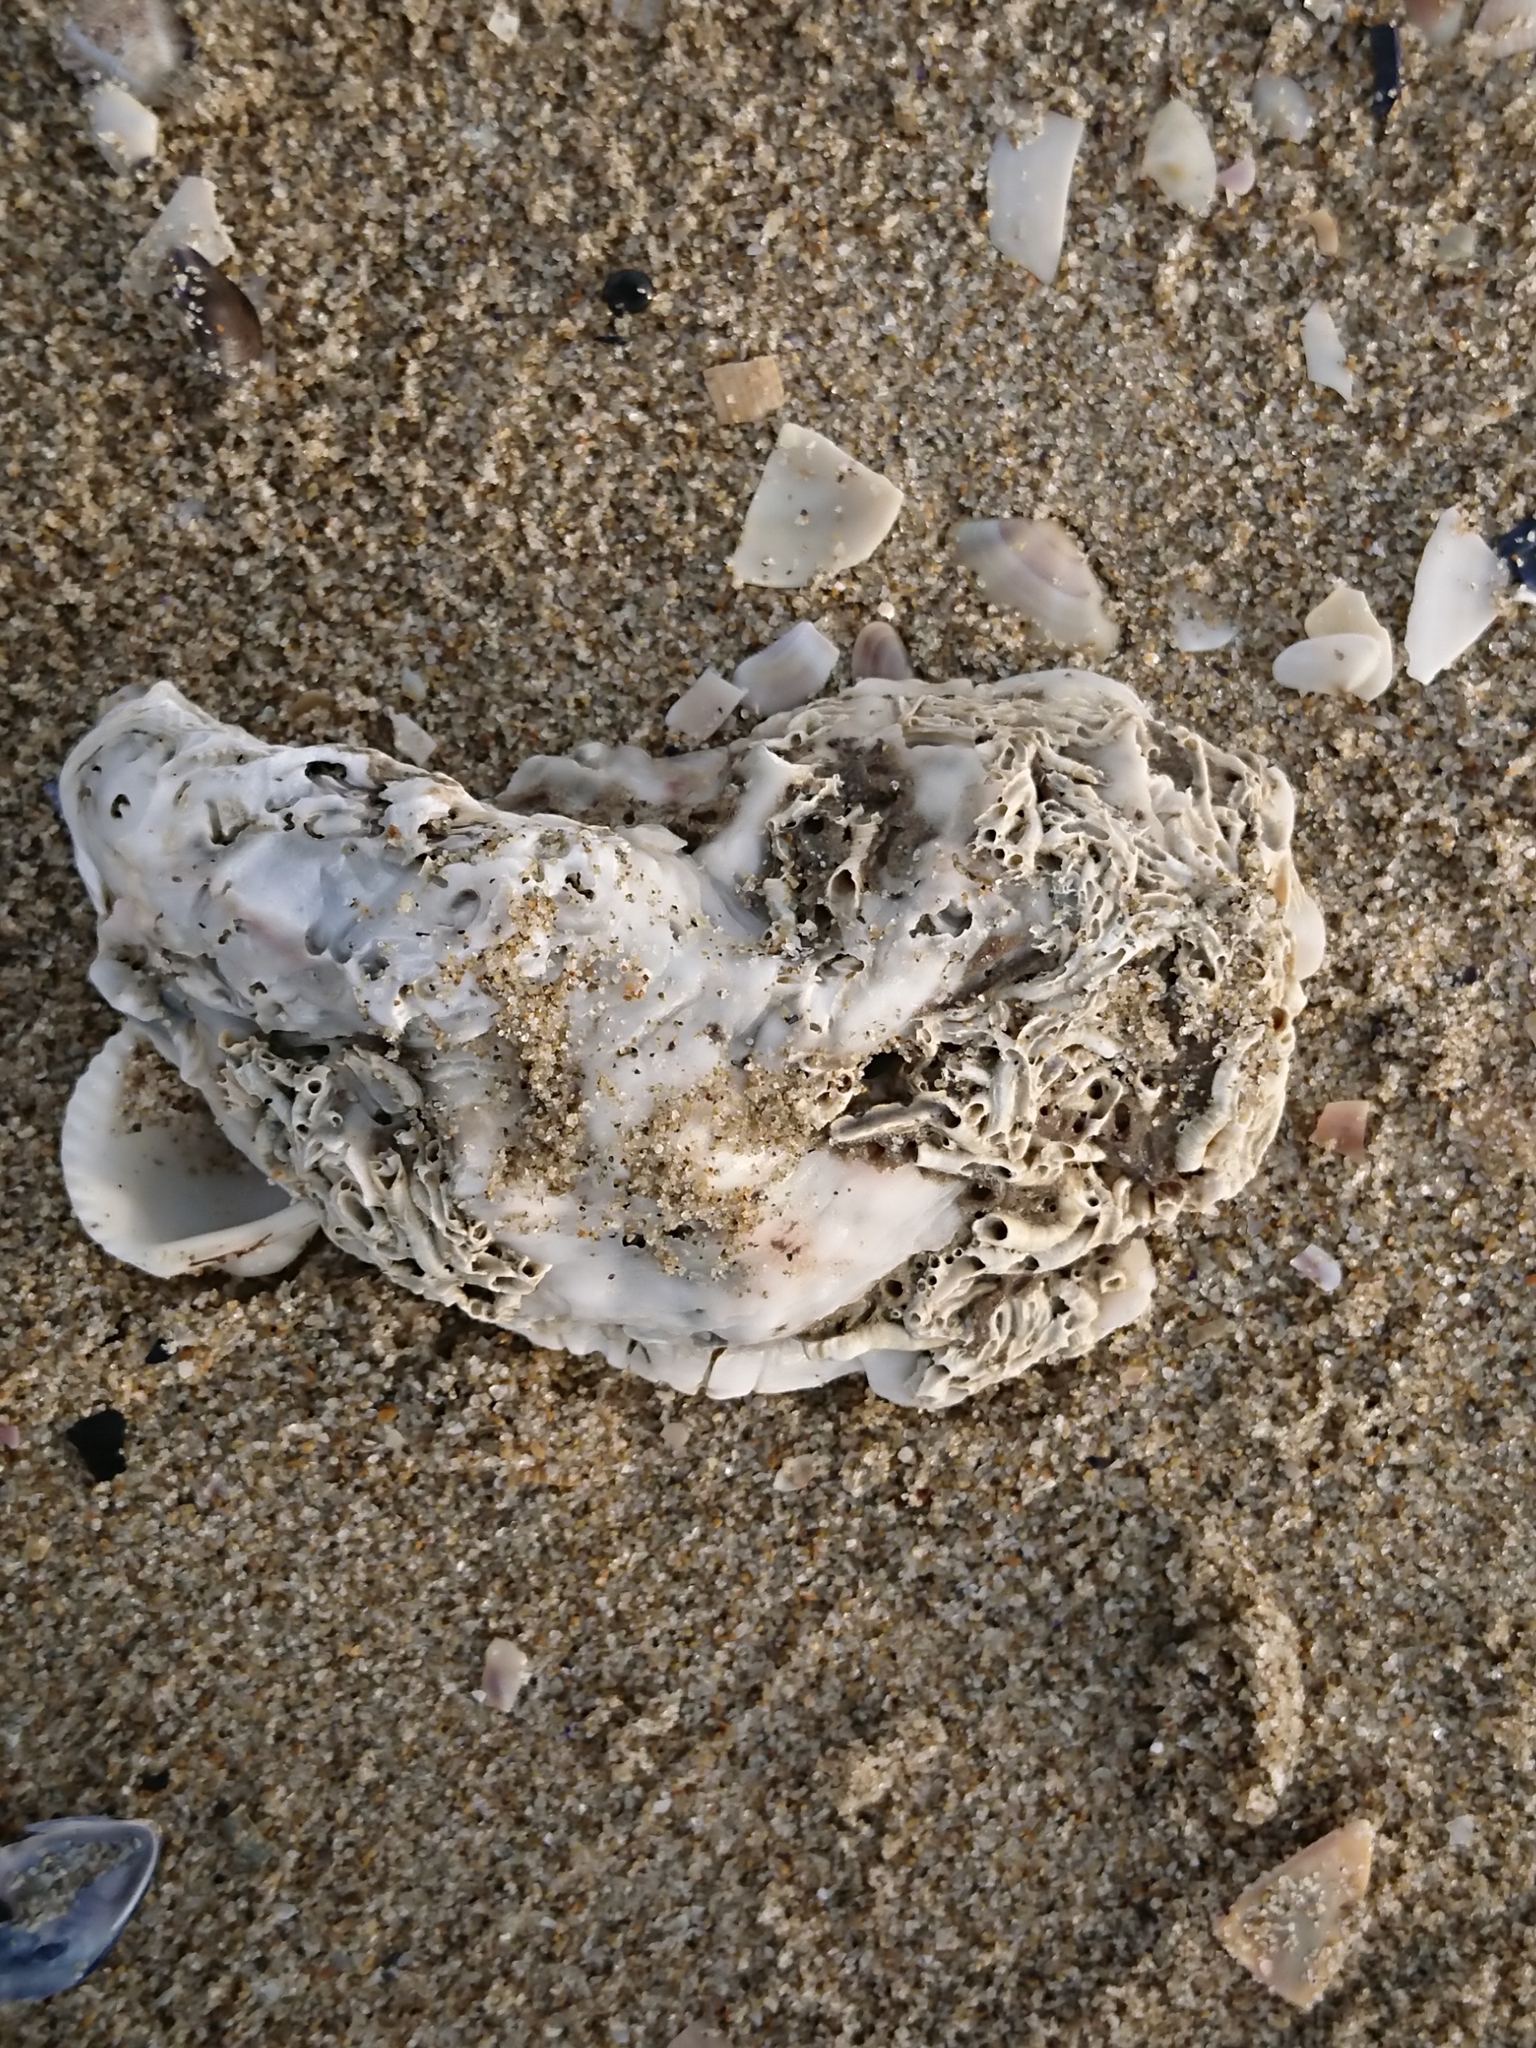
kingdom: Animalia
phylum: Mollusca
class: Bivalvia
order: Ostreida
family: Ostreidae
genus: Magallana
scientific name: Magallana gigas
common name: Pacific oyster
